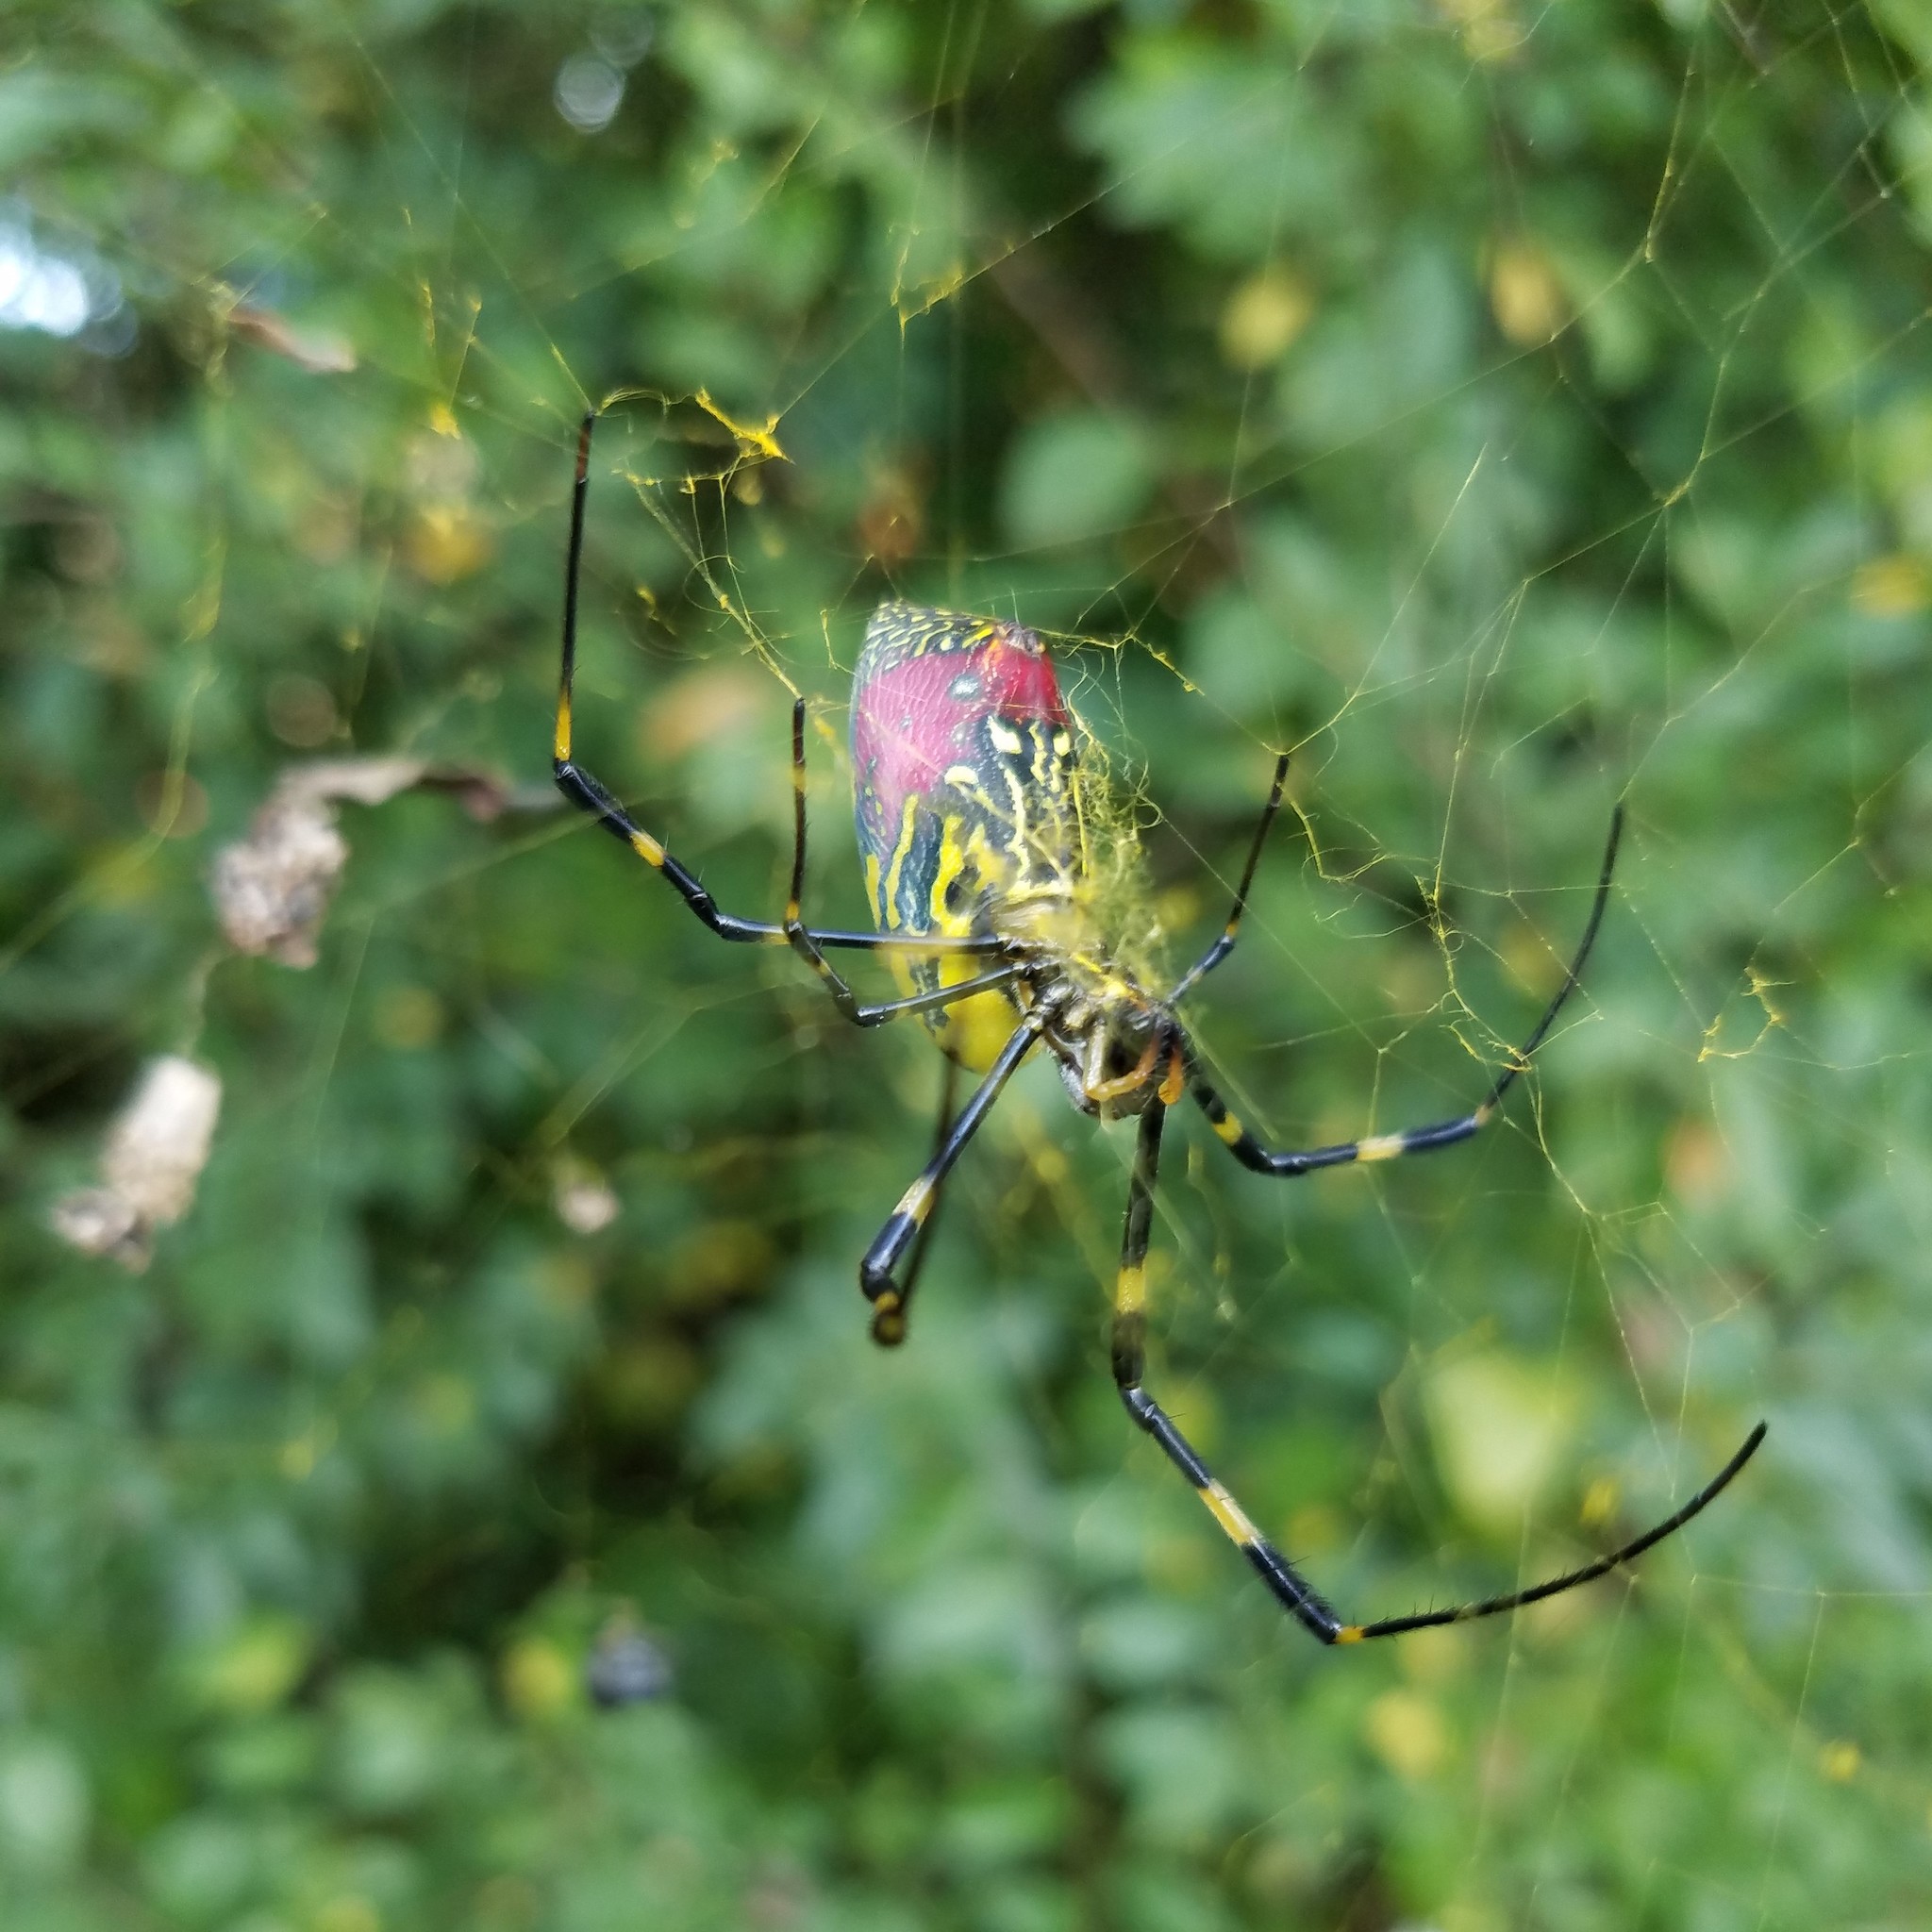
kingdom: Animalia
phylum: Arthropoda
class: Arachnida
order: Araneae
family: Araneidae
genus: Trichonephila
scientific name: Trichonephila clavata
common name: Jorō spider
